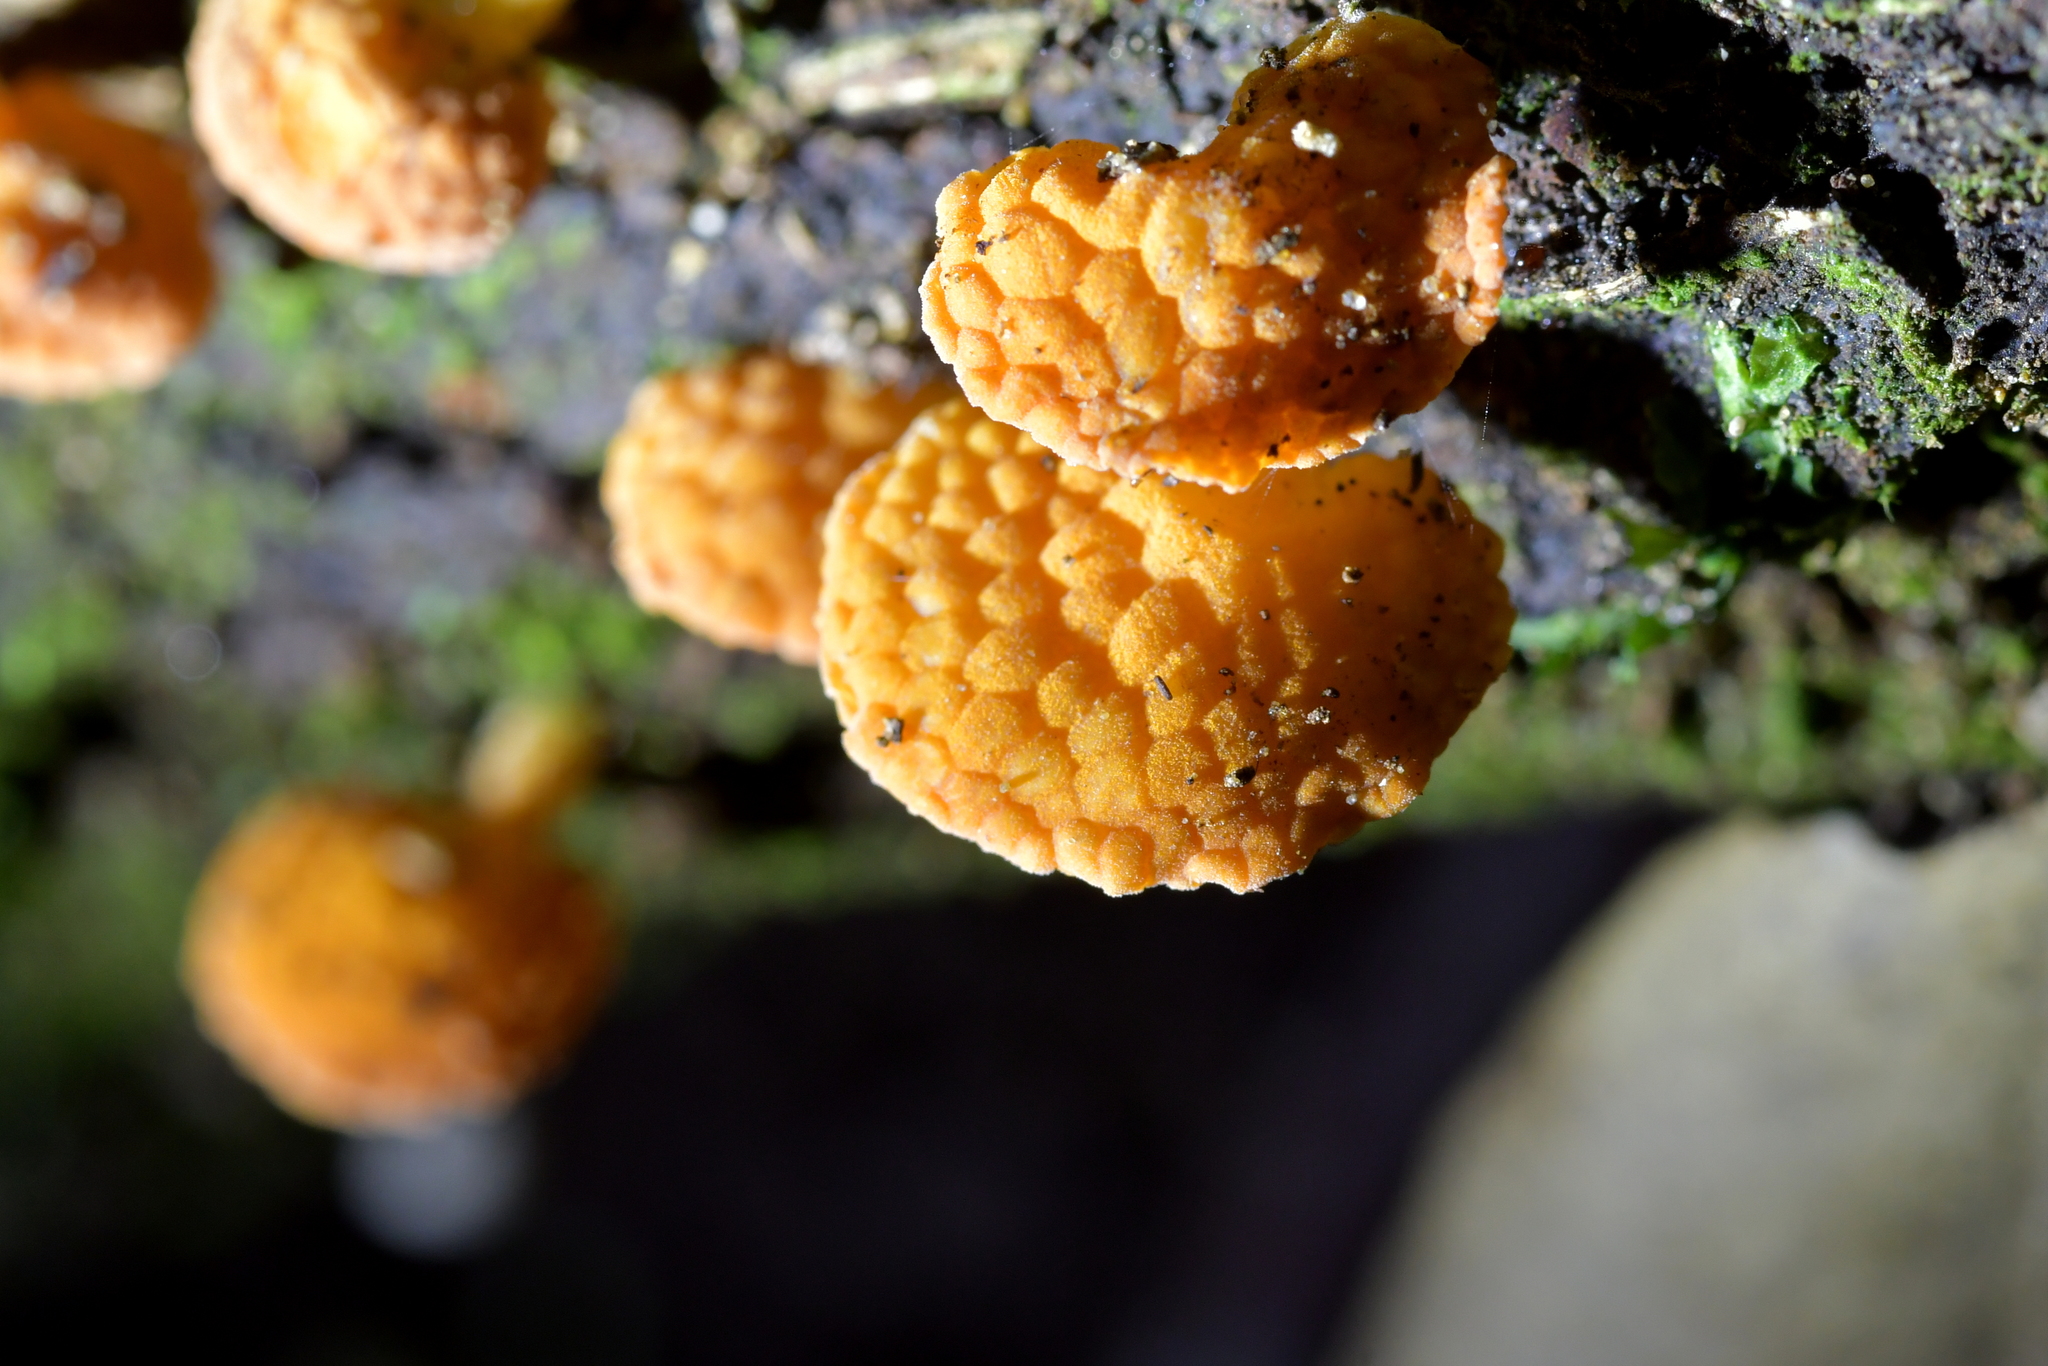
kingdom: Fungi
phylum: Basidiomycota
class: Agaricomycetes
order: Agaricales
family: Mycenaceae
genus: Favolaschia
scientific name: Favolaschia claudopus
